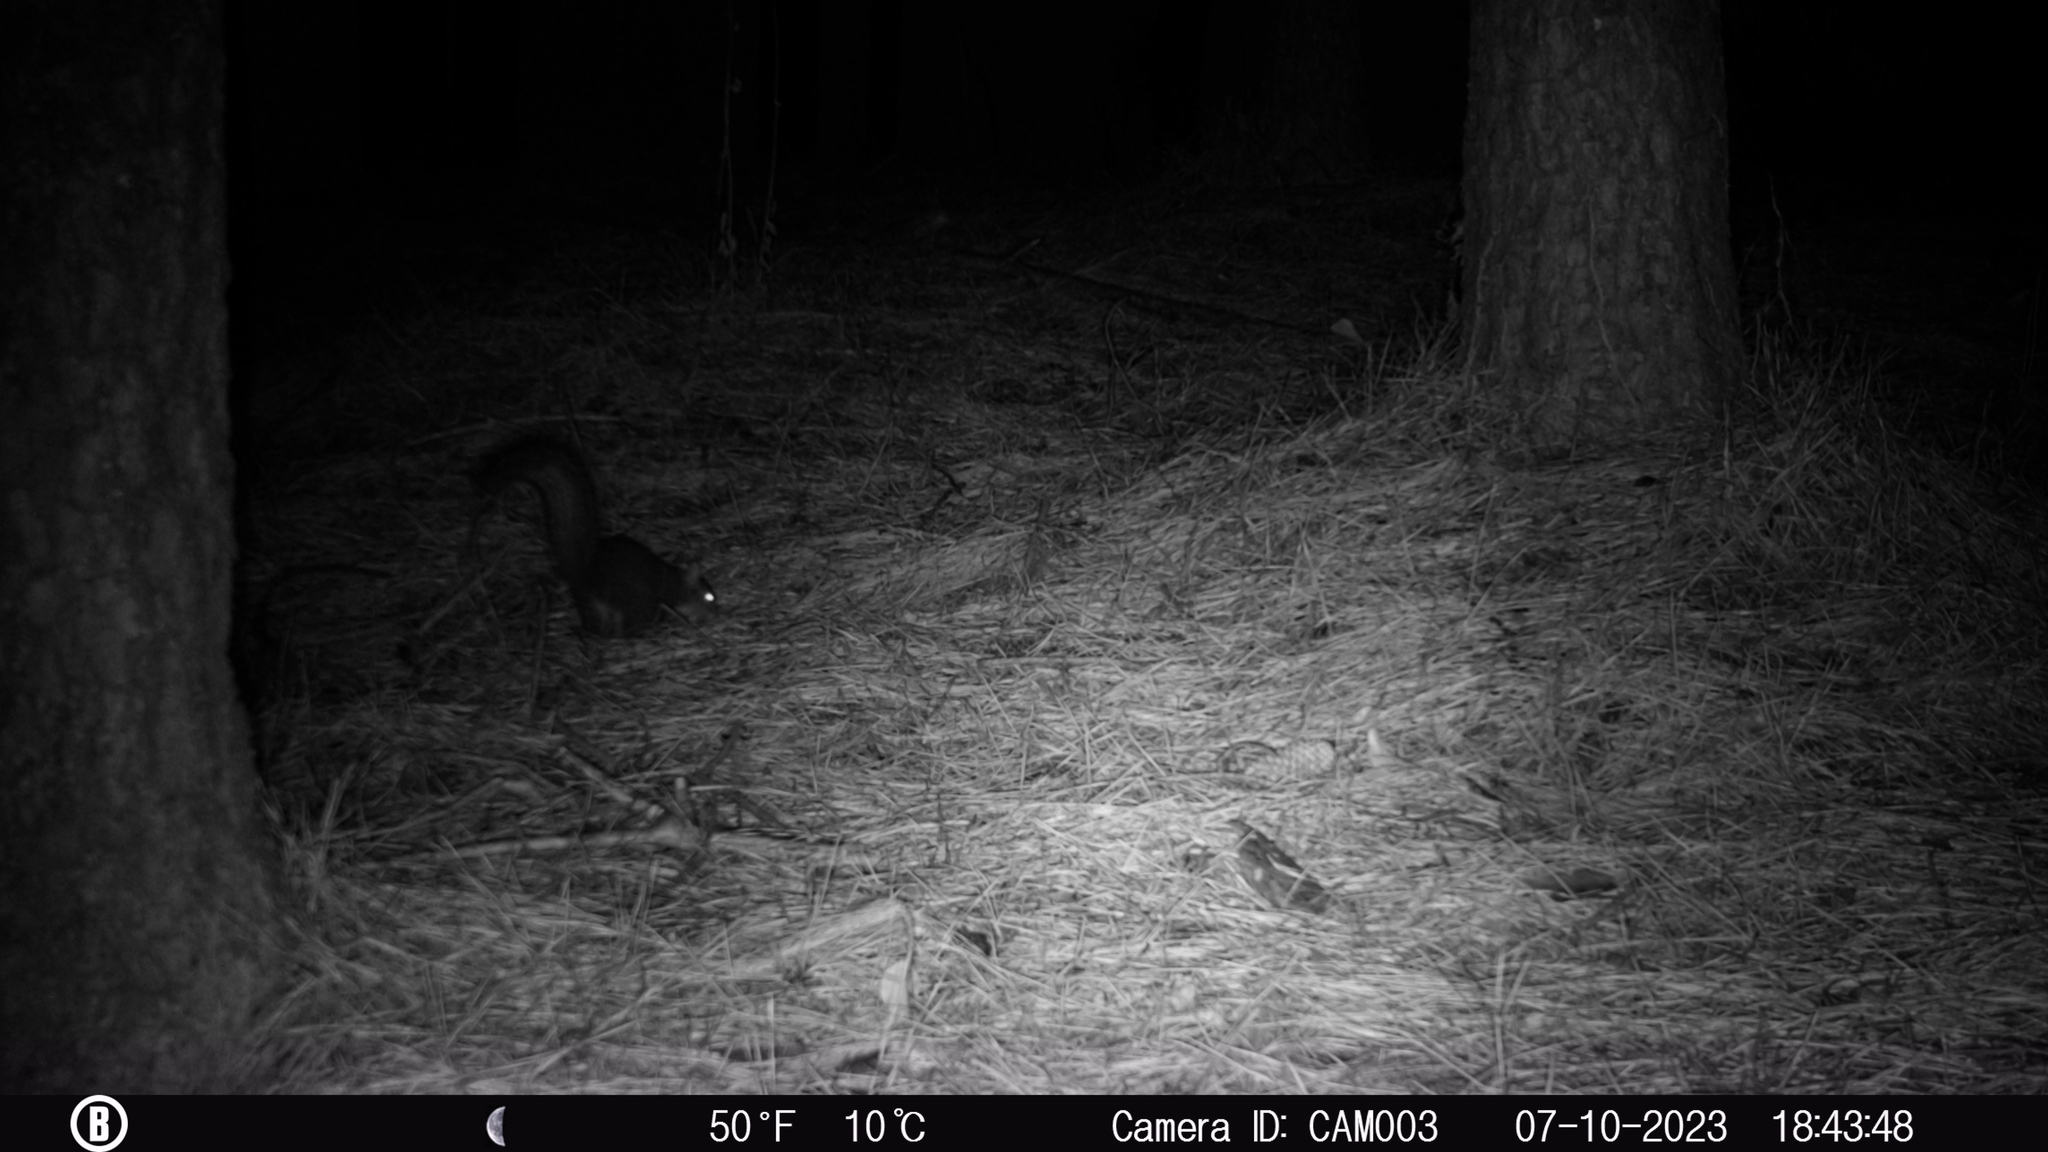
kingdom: Animalia
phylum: Chordata
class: Mammalia
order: Rodentia
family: Sciuridae
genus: Sciurus
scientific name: Sciurus carolinensis
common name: Eastern gray squirrel
